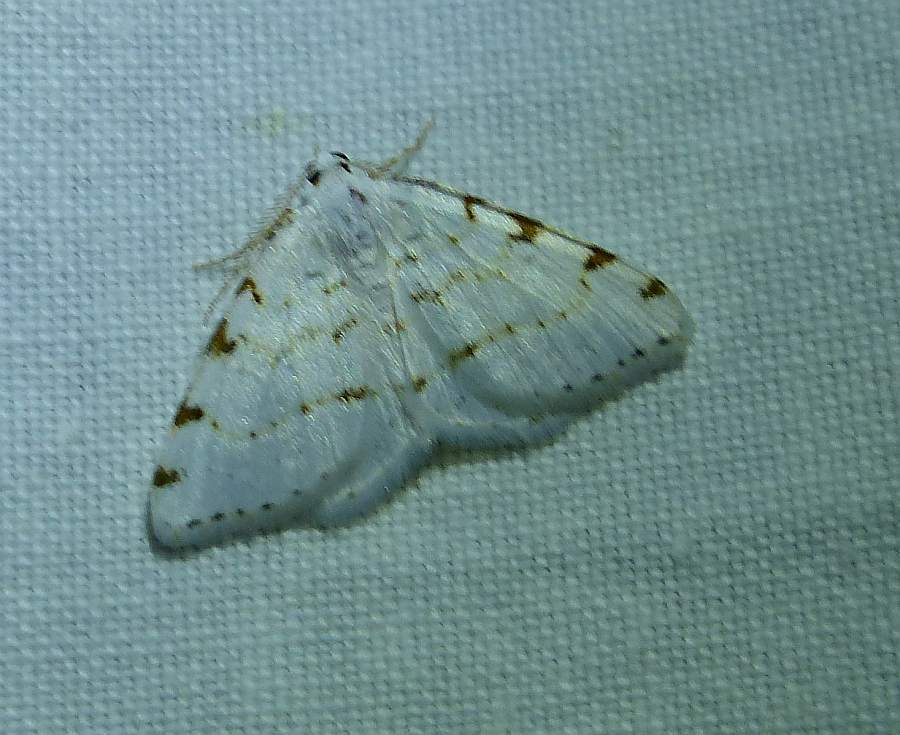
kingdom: Animalia
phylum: Arthropoda
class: Insecta
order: Lepidoptera
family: Geometridae
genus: Macaria
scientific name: Macaria pustularia
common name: Lesser maple spanworm moth
